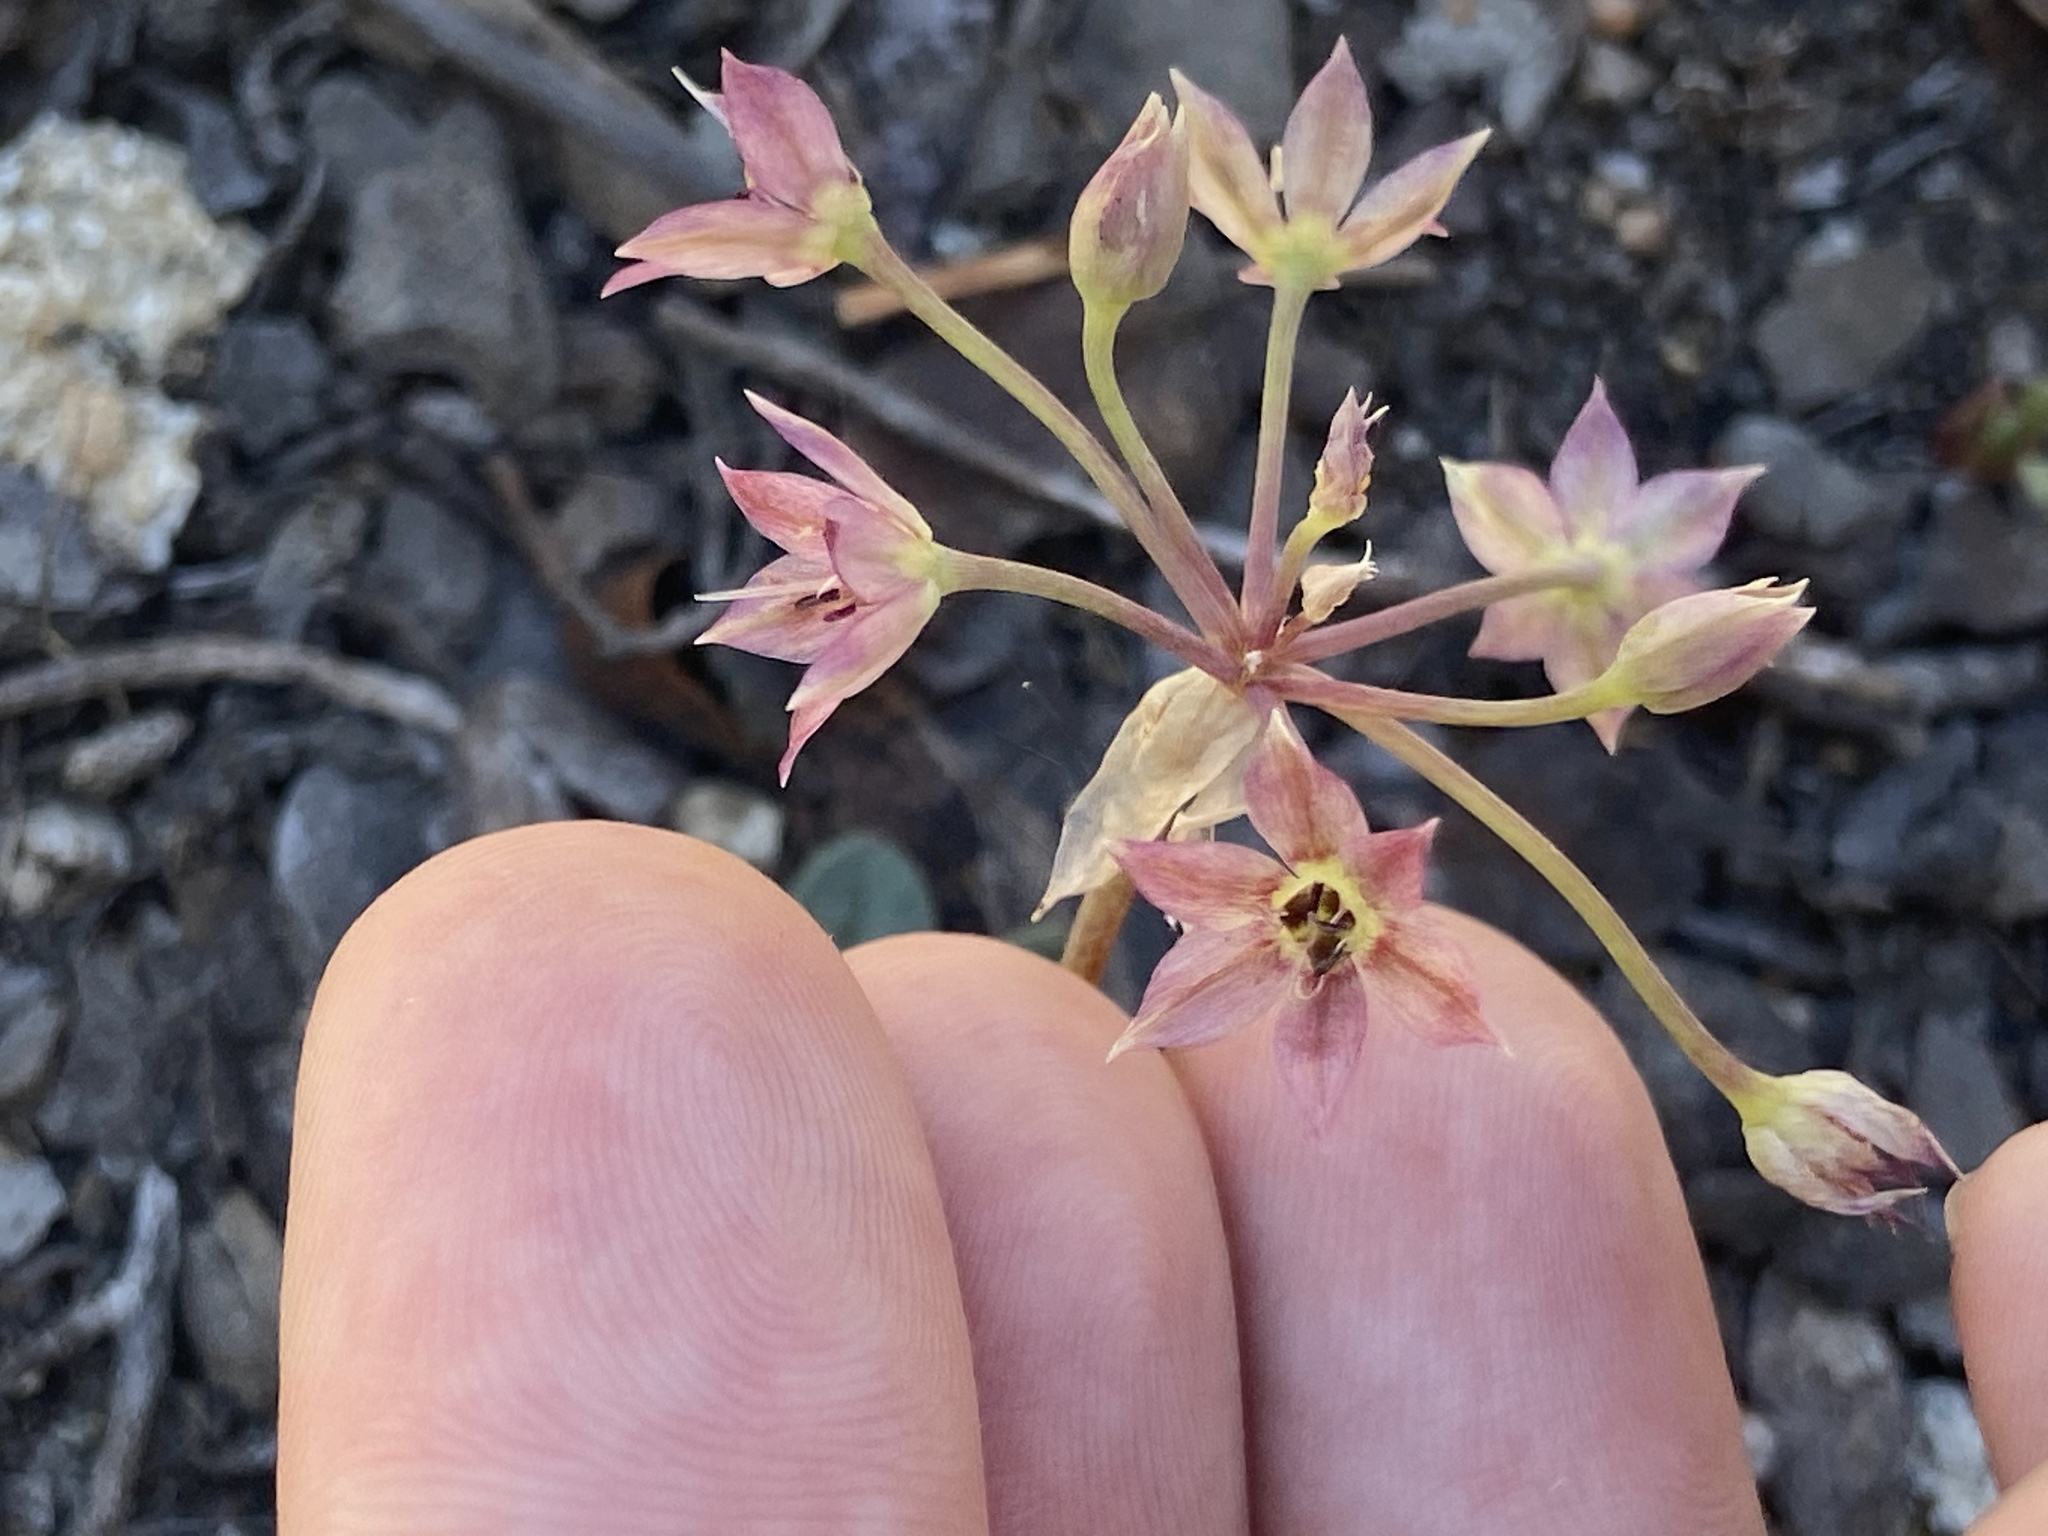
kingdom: Plantae
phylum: Tracheophyta
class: Liliopsida
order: Asparagales
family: Amaryllidaceae
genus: Allium
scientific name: Allium campanulatum
